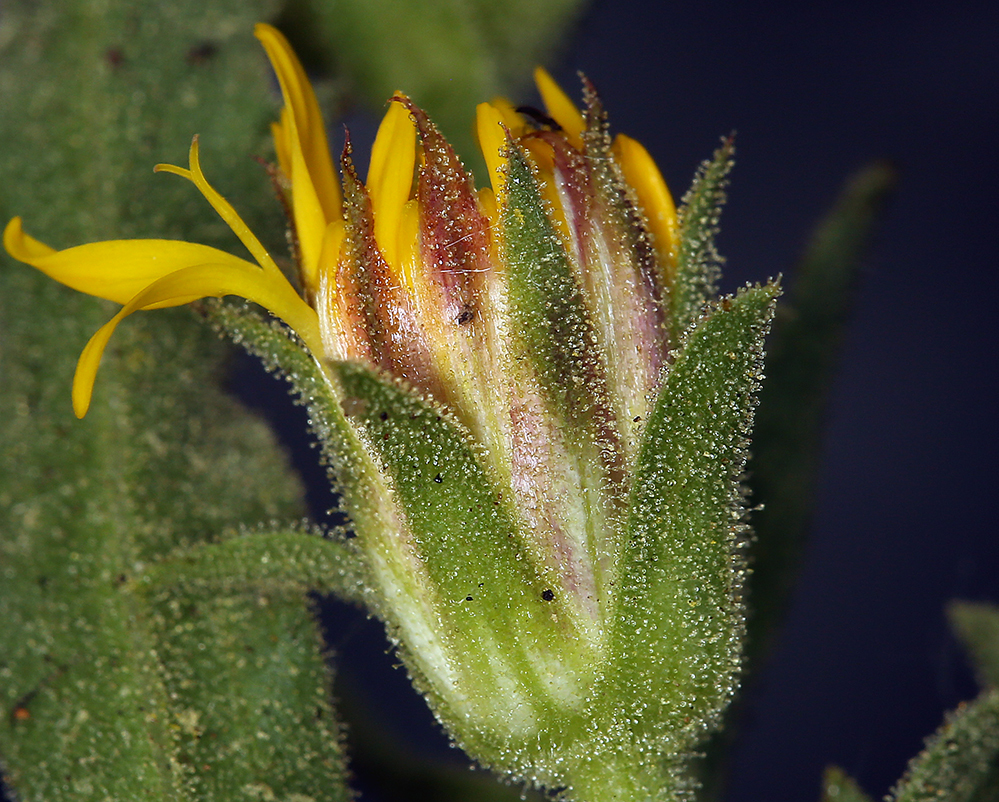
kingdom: Plantae
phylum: Tracheophyta
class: Magnoliopsida
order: Asterales
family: Asteraceae
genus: Toiyabea
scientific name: Toiyabea peirsonii
